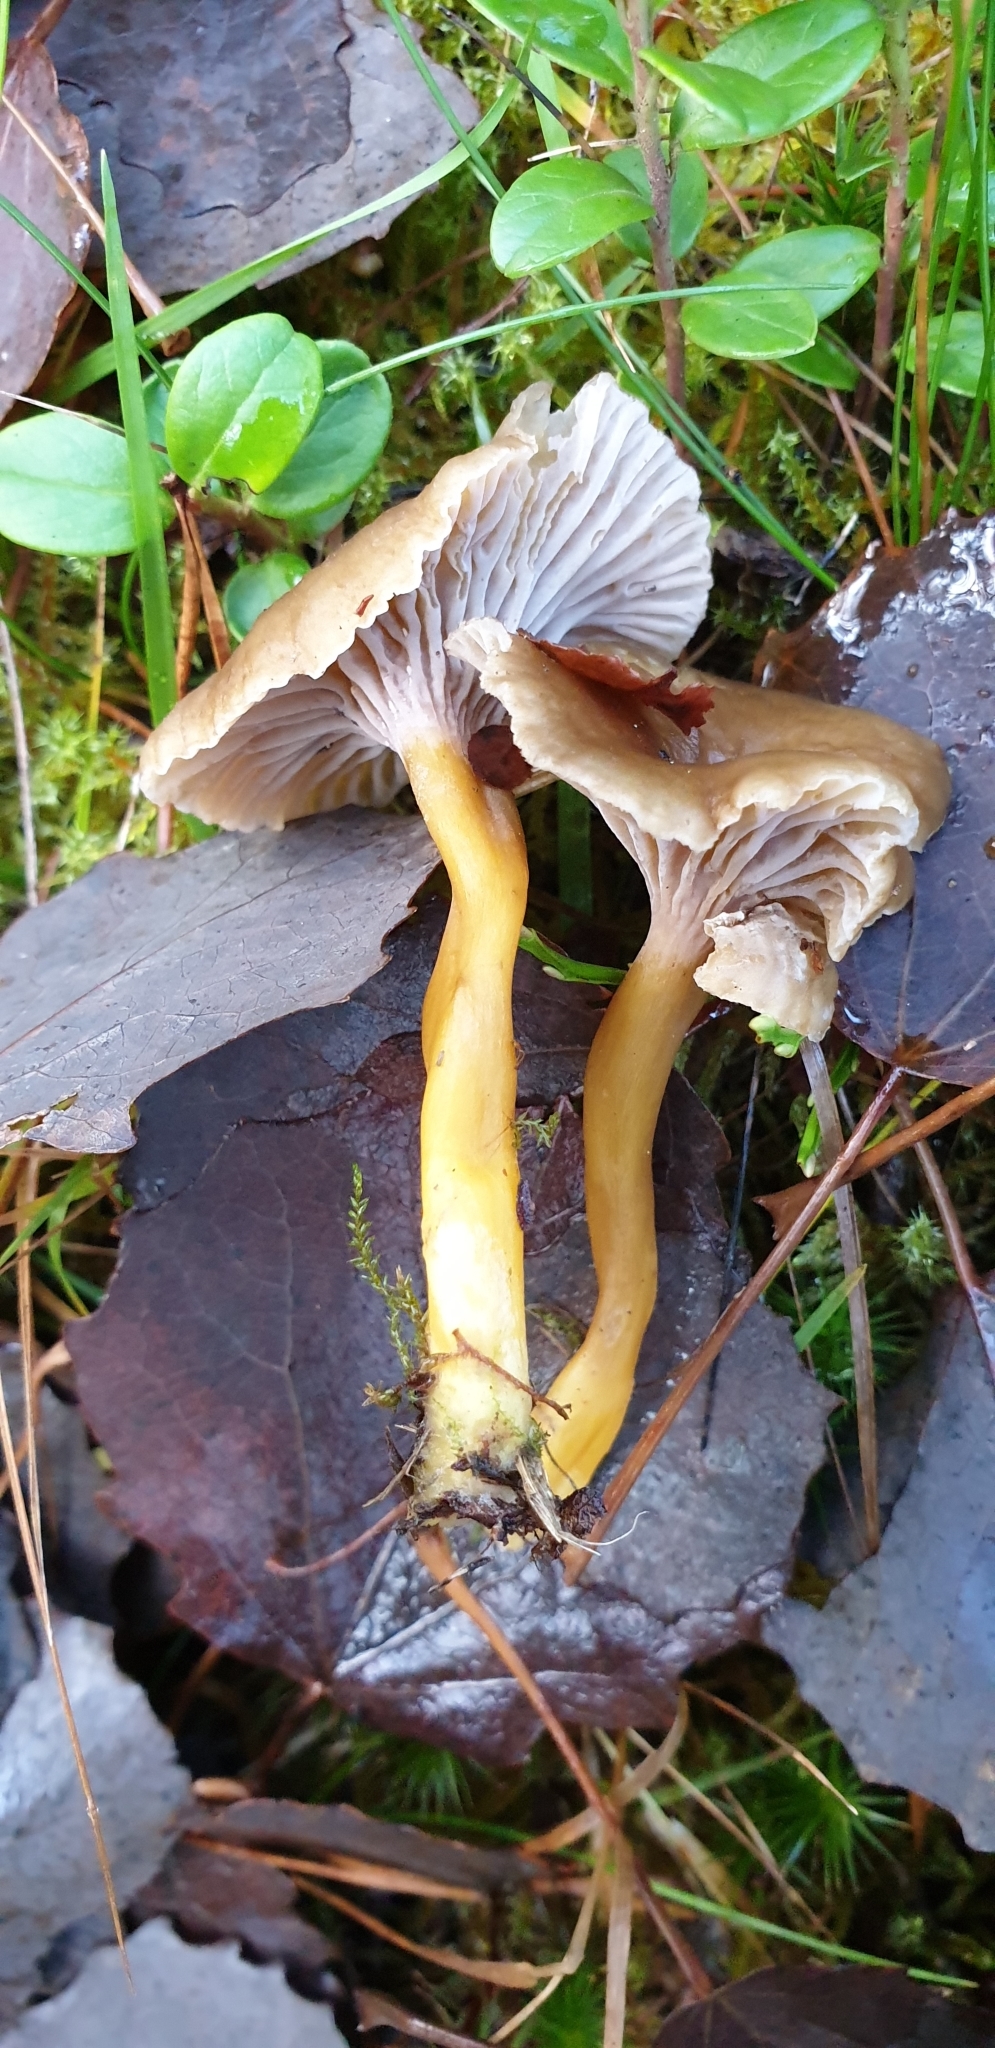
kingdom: Fungi
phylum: Basidiomycota
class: Agaricomycetes
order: Cantharellales
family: Hydnaceae
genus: Craterellus
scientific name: Craterellus tubaeformis
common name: Yellowfoot
